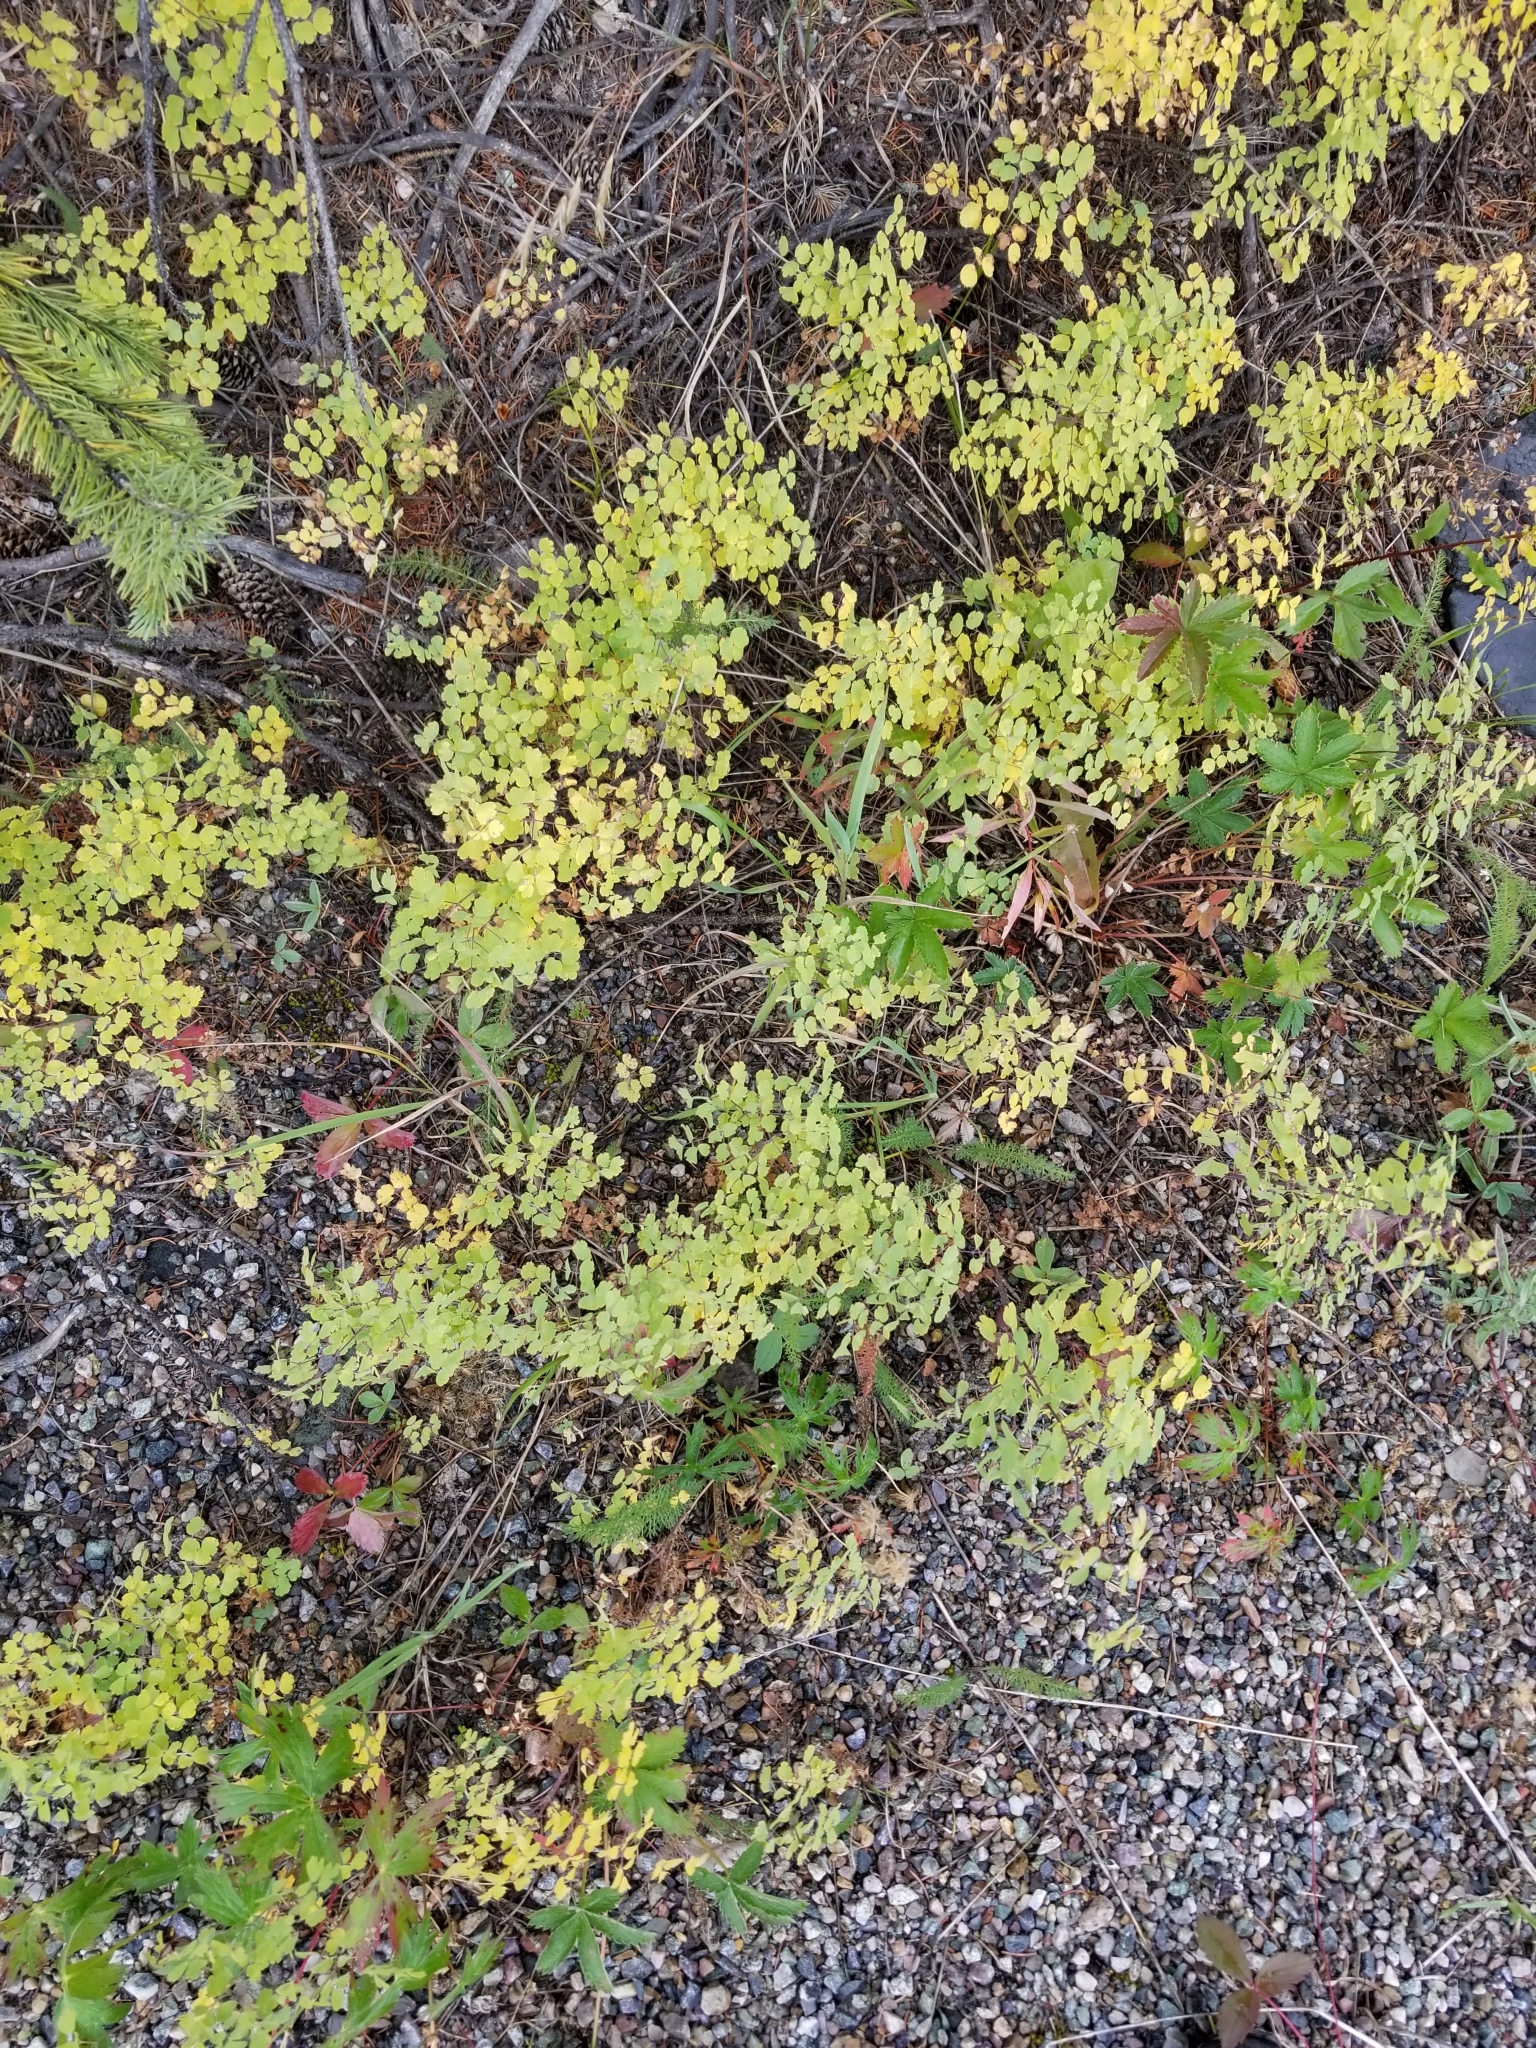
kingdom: Plantae
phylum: Tracheophyta
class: Magnoliopsida
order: Ranunculales
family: Ranunculaceae
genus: Thalictrum
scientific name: Thalictrum fendleri
